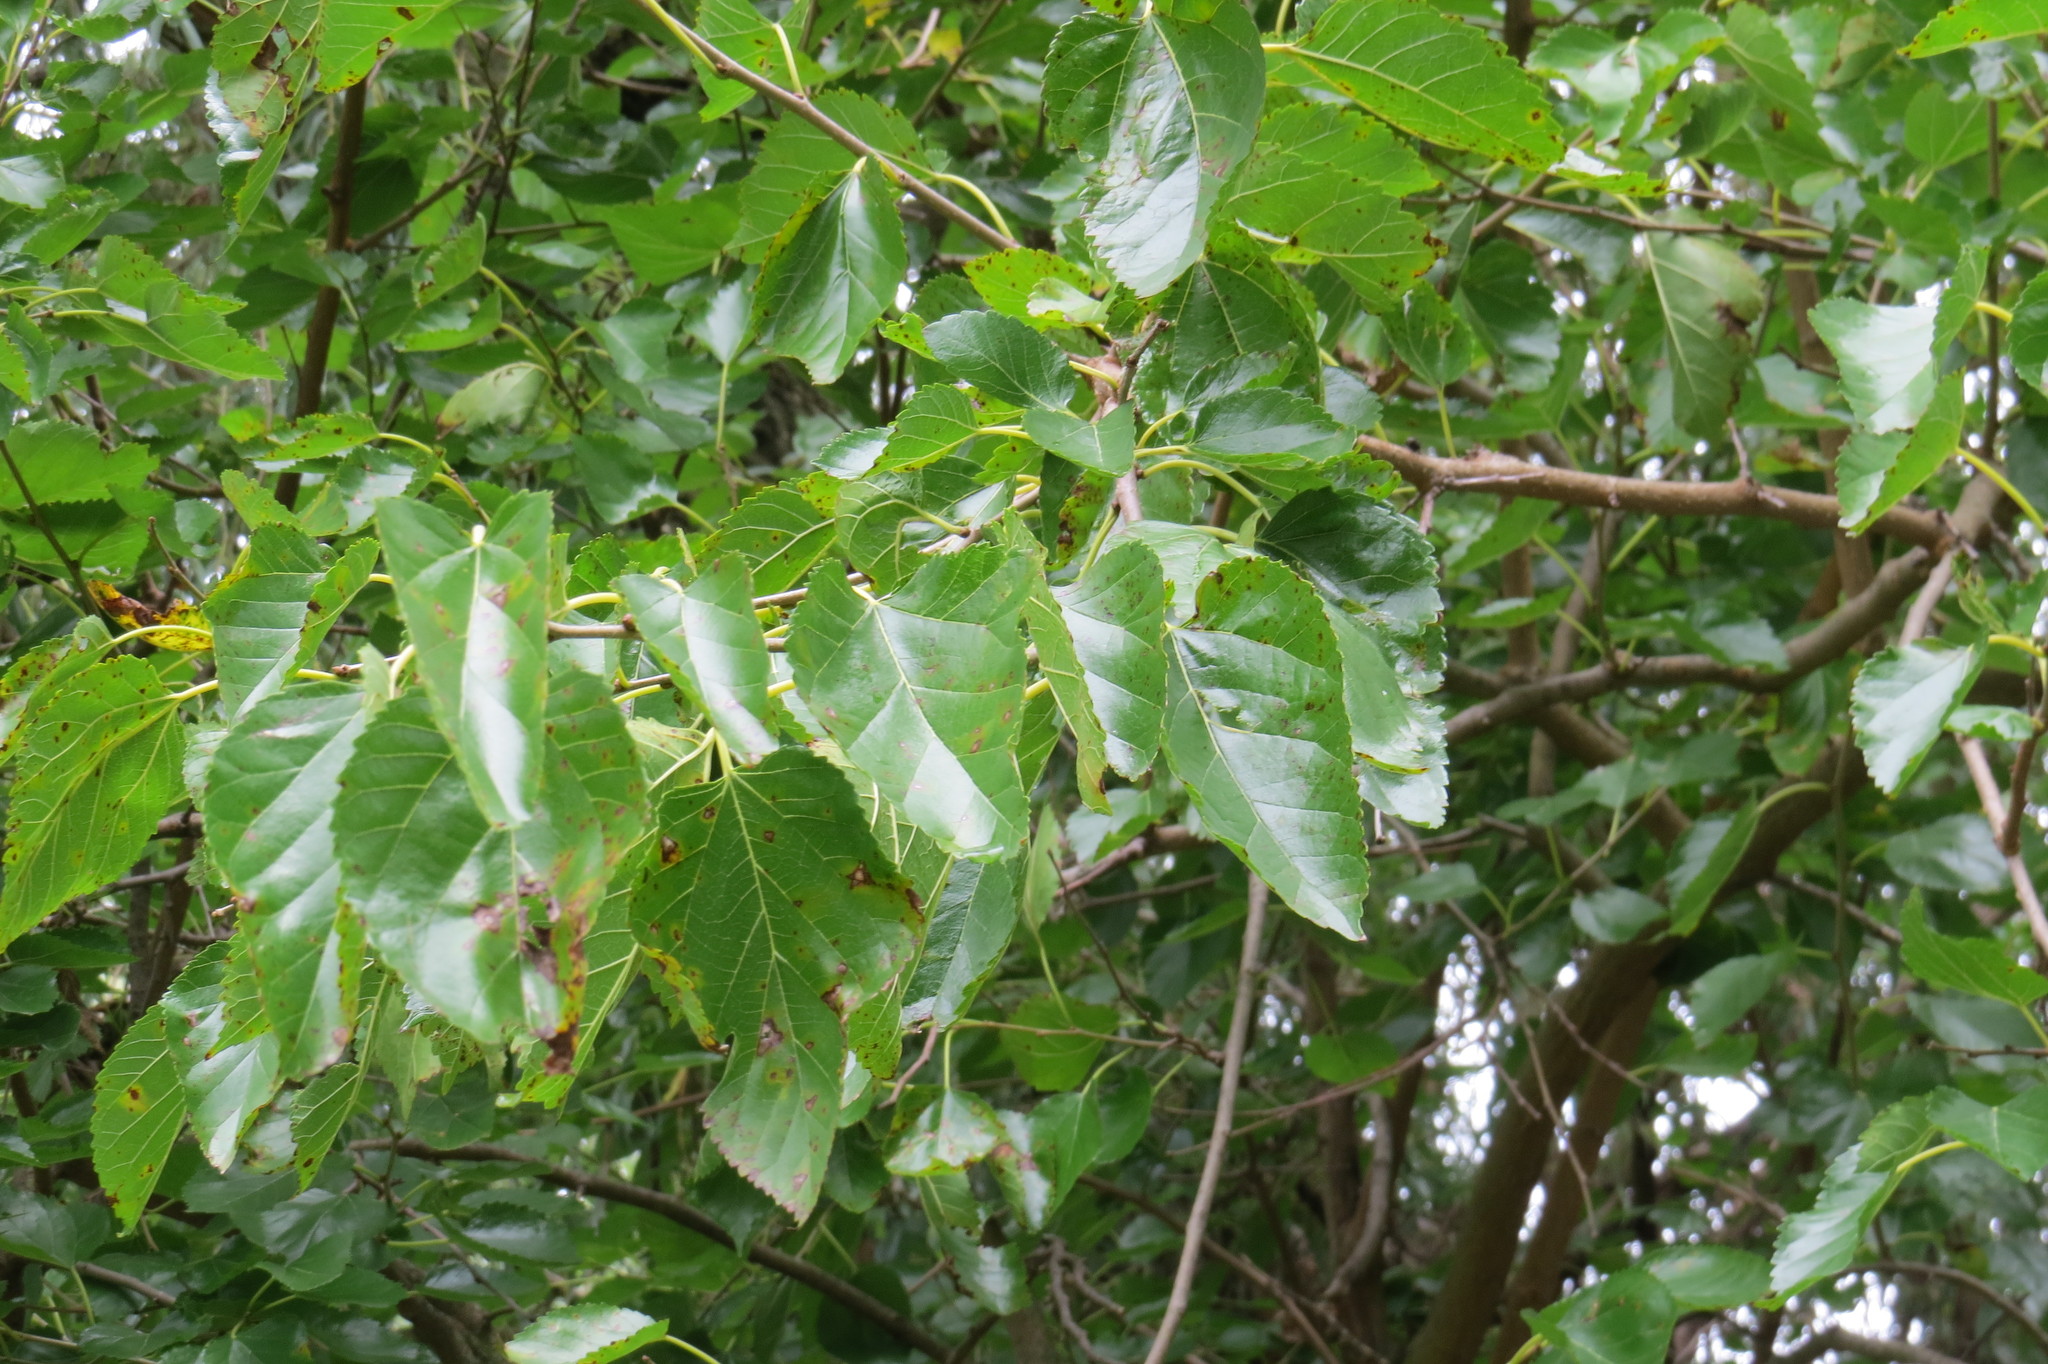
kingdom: Plantae
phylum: Tracheophyta
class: Magnoliopsida
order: Rosales
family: Moraceae
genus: Morus
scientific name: Morus alba
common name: White mulberry
